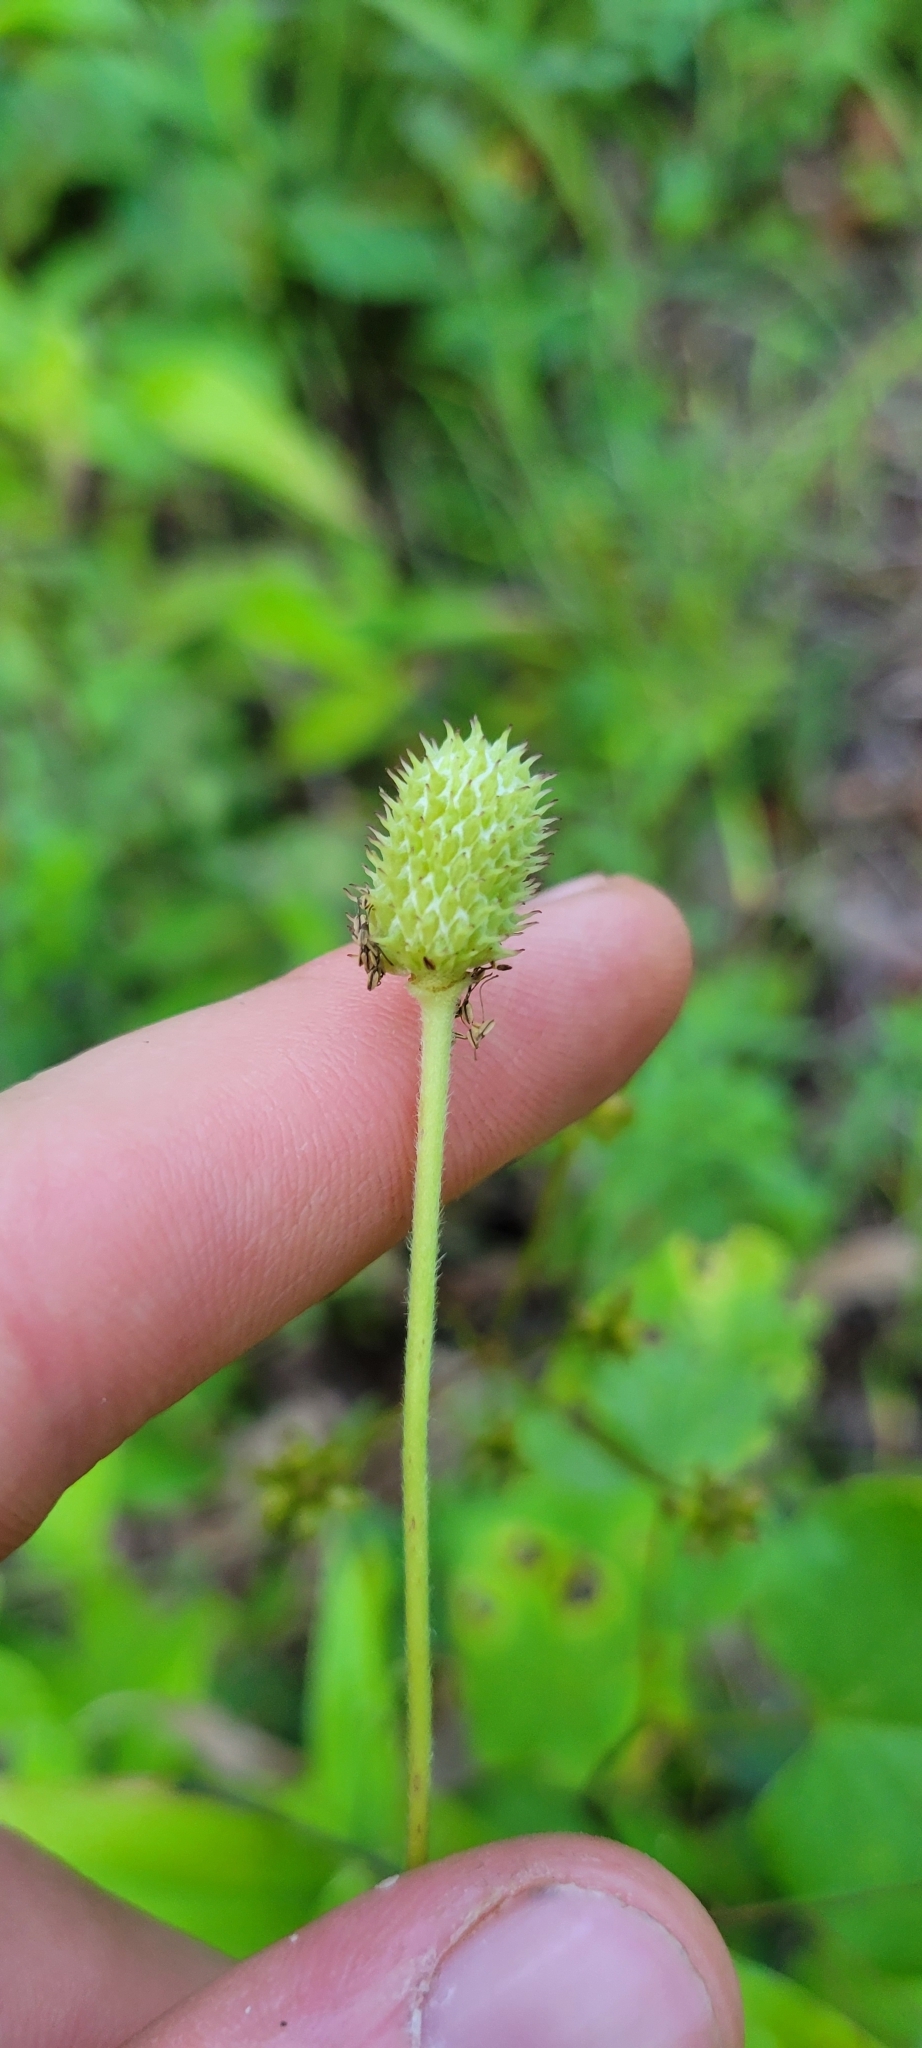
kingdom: Plantae
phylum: Tracheophyta
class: Magnoliopsida
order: Ranunculales
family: Ranunculaceae
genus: Anemone
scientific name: Anemone virginiana
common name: Tall anemone
